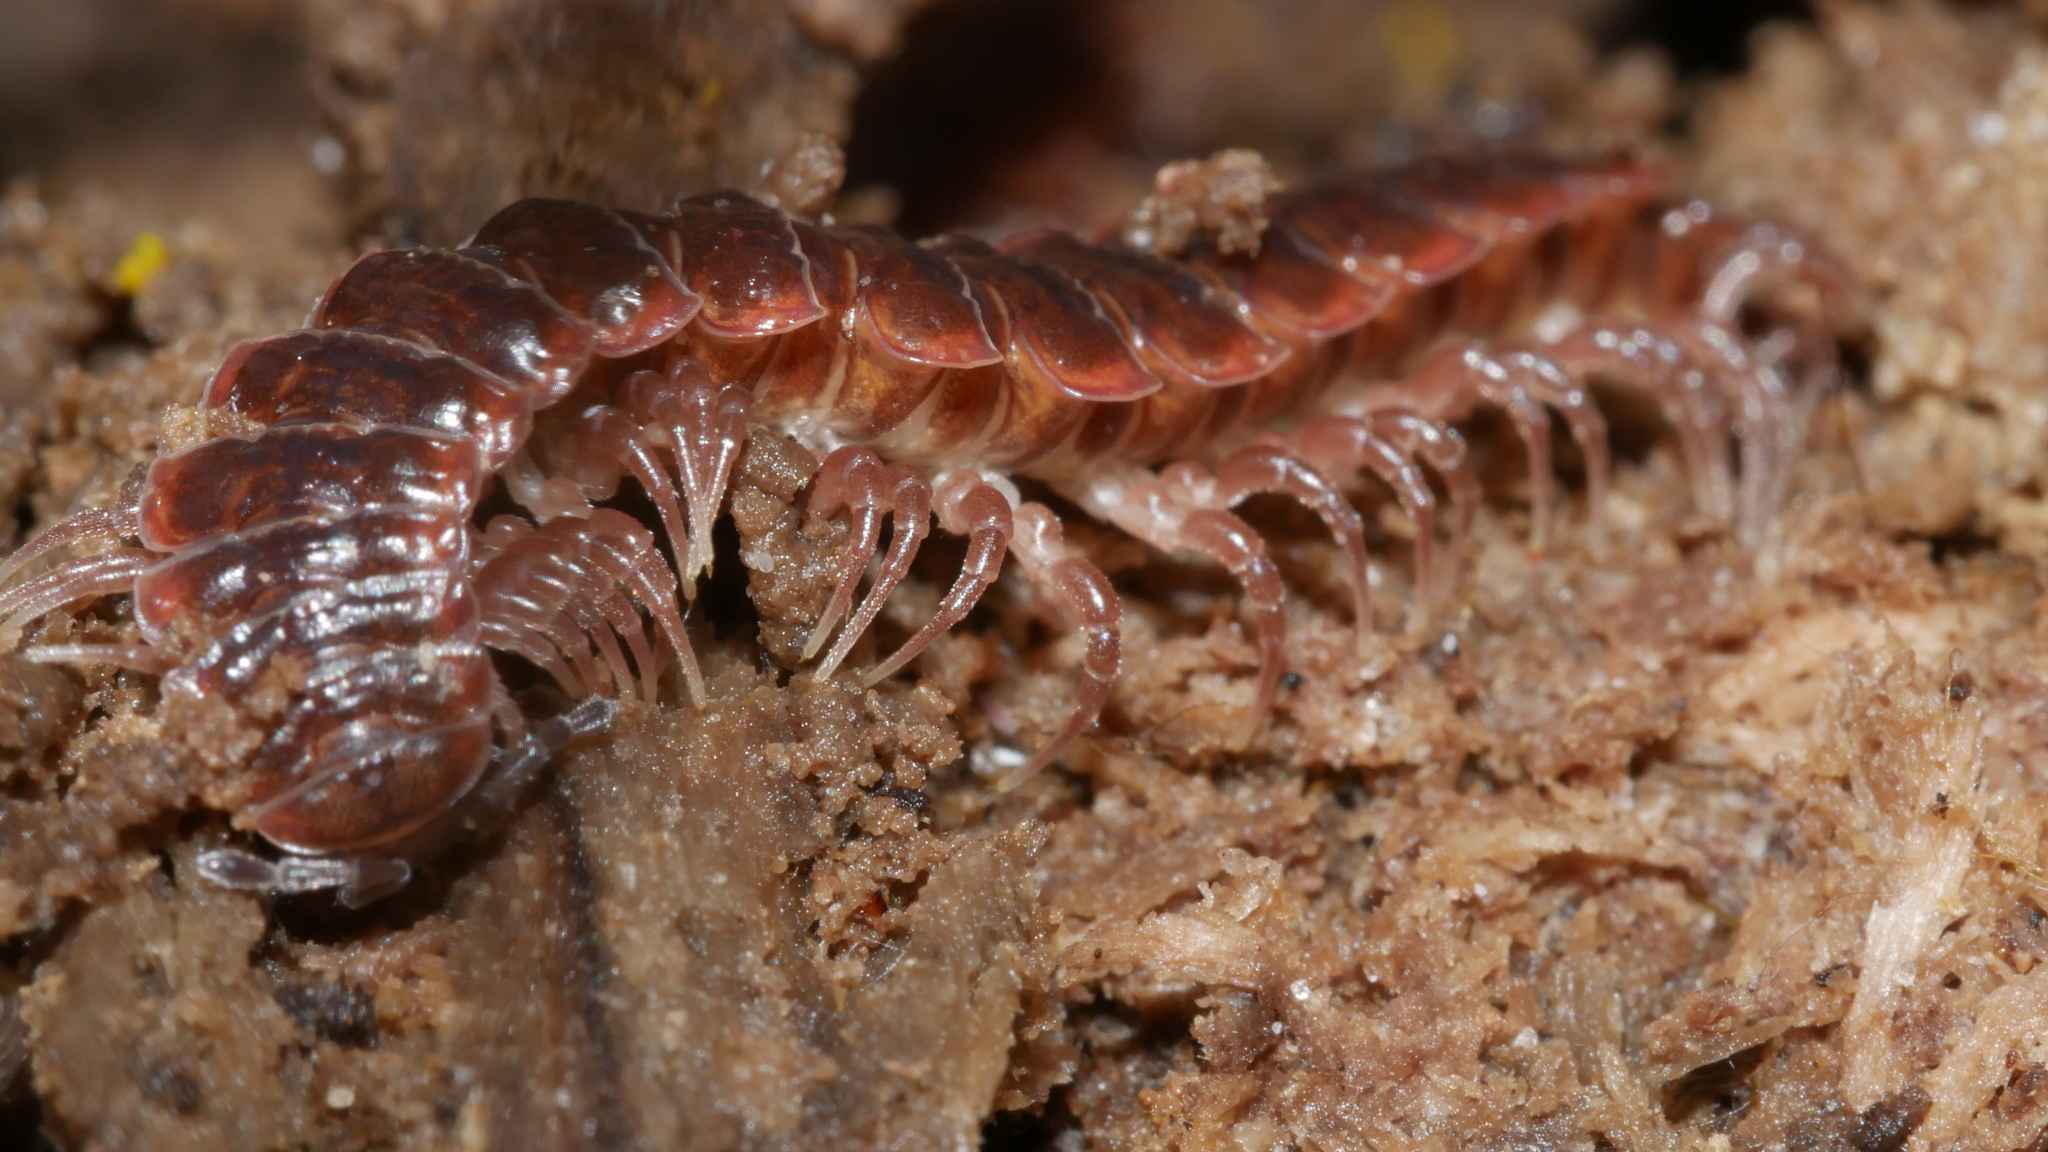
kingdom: Animalia
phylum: Arthropoda
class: Diplopoda
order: Polydesmida
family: Polydesmidae
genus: Pseudopolydesmus
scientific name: Pseudopolydesmus serratus
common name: Common pink flat-back millipede
